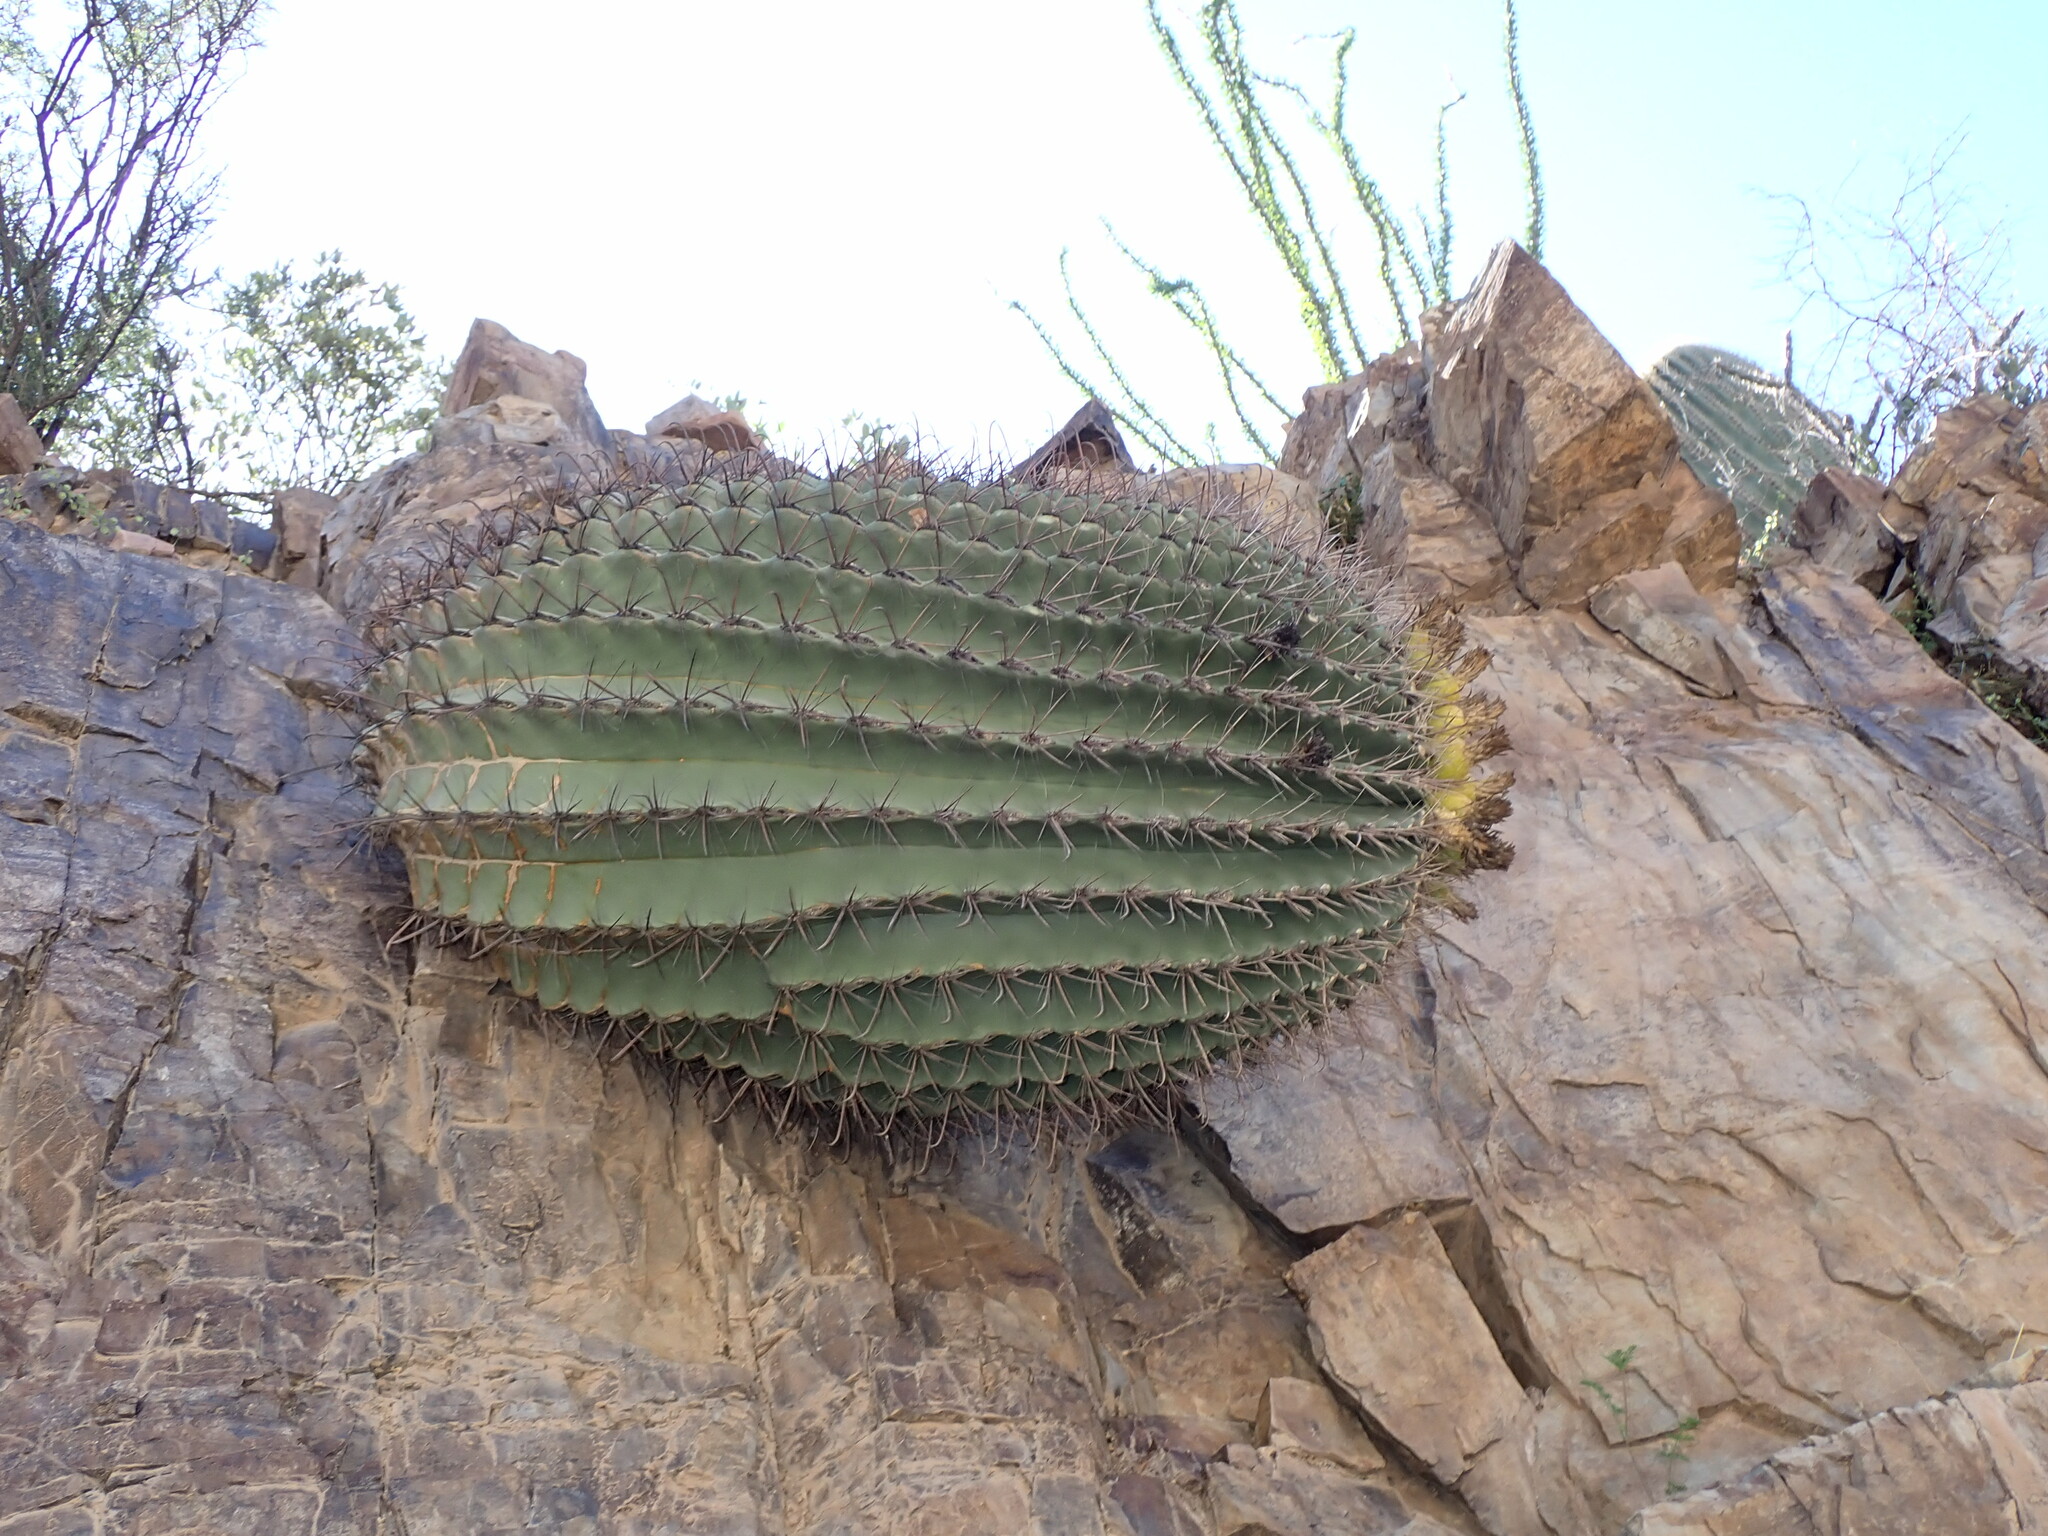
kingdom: Plantae
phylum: Tracheophyta
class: Magnoliopsida
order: Caryophyllales
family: Cactaceae
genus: Ferocactus
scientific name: Ferocactus wislizeni
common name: Candy barrel cactus
